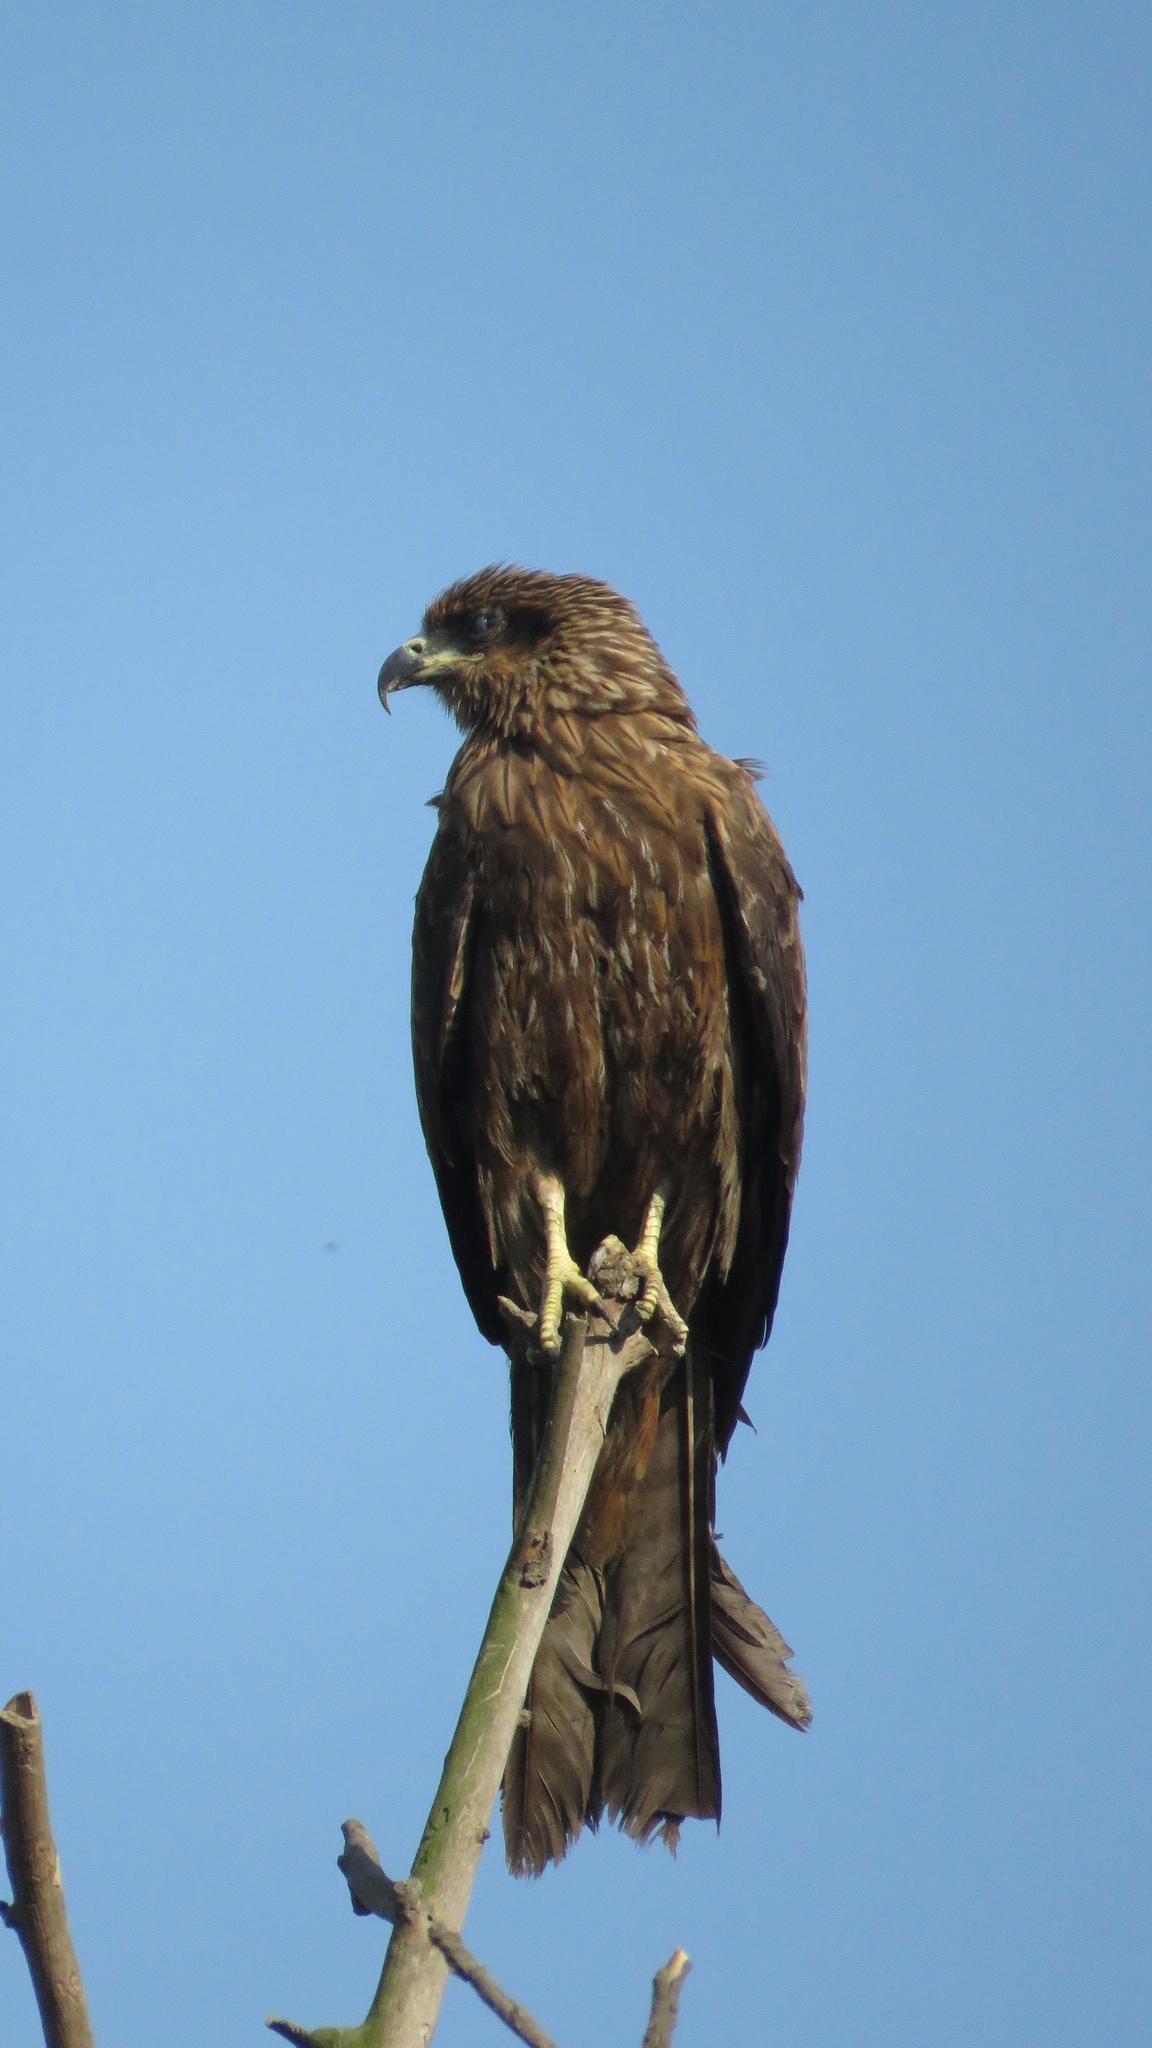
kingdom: Animalia
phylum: Chordata
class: Aves
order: Accipitriformes
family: Accipitridae
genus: Milvus
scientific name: Milvus migrans
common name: Black kite
